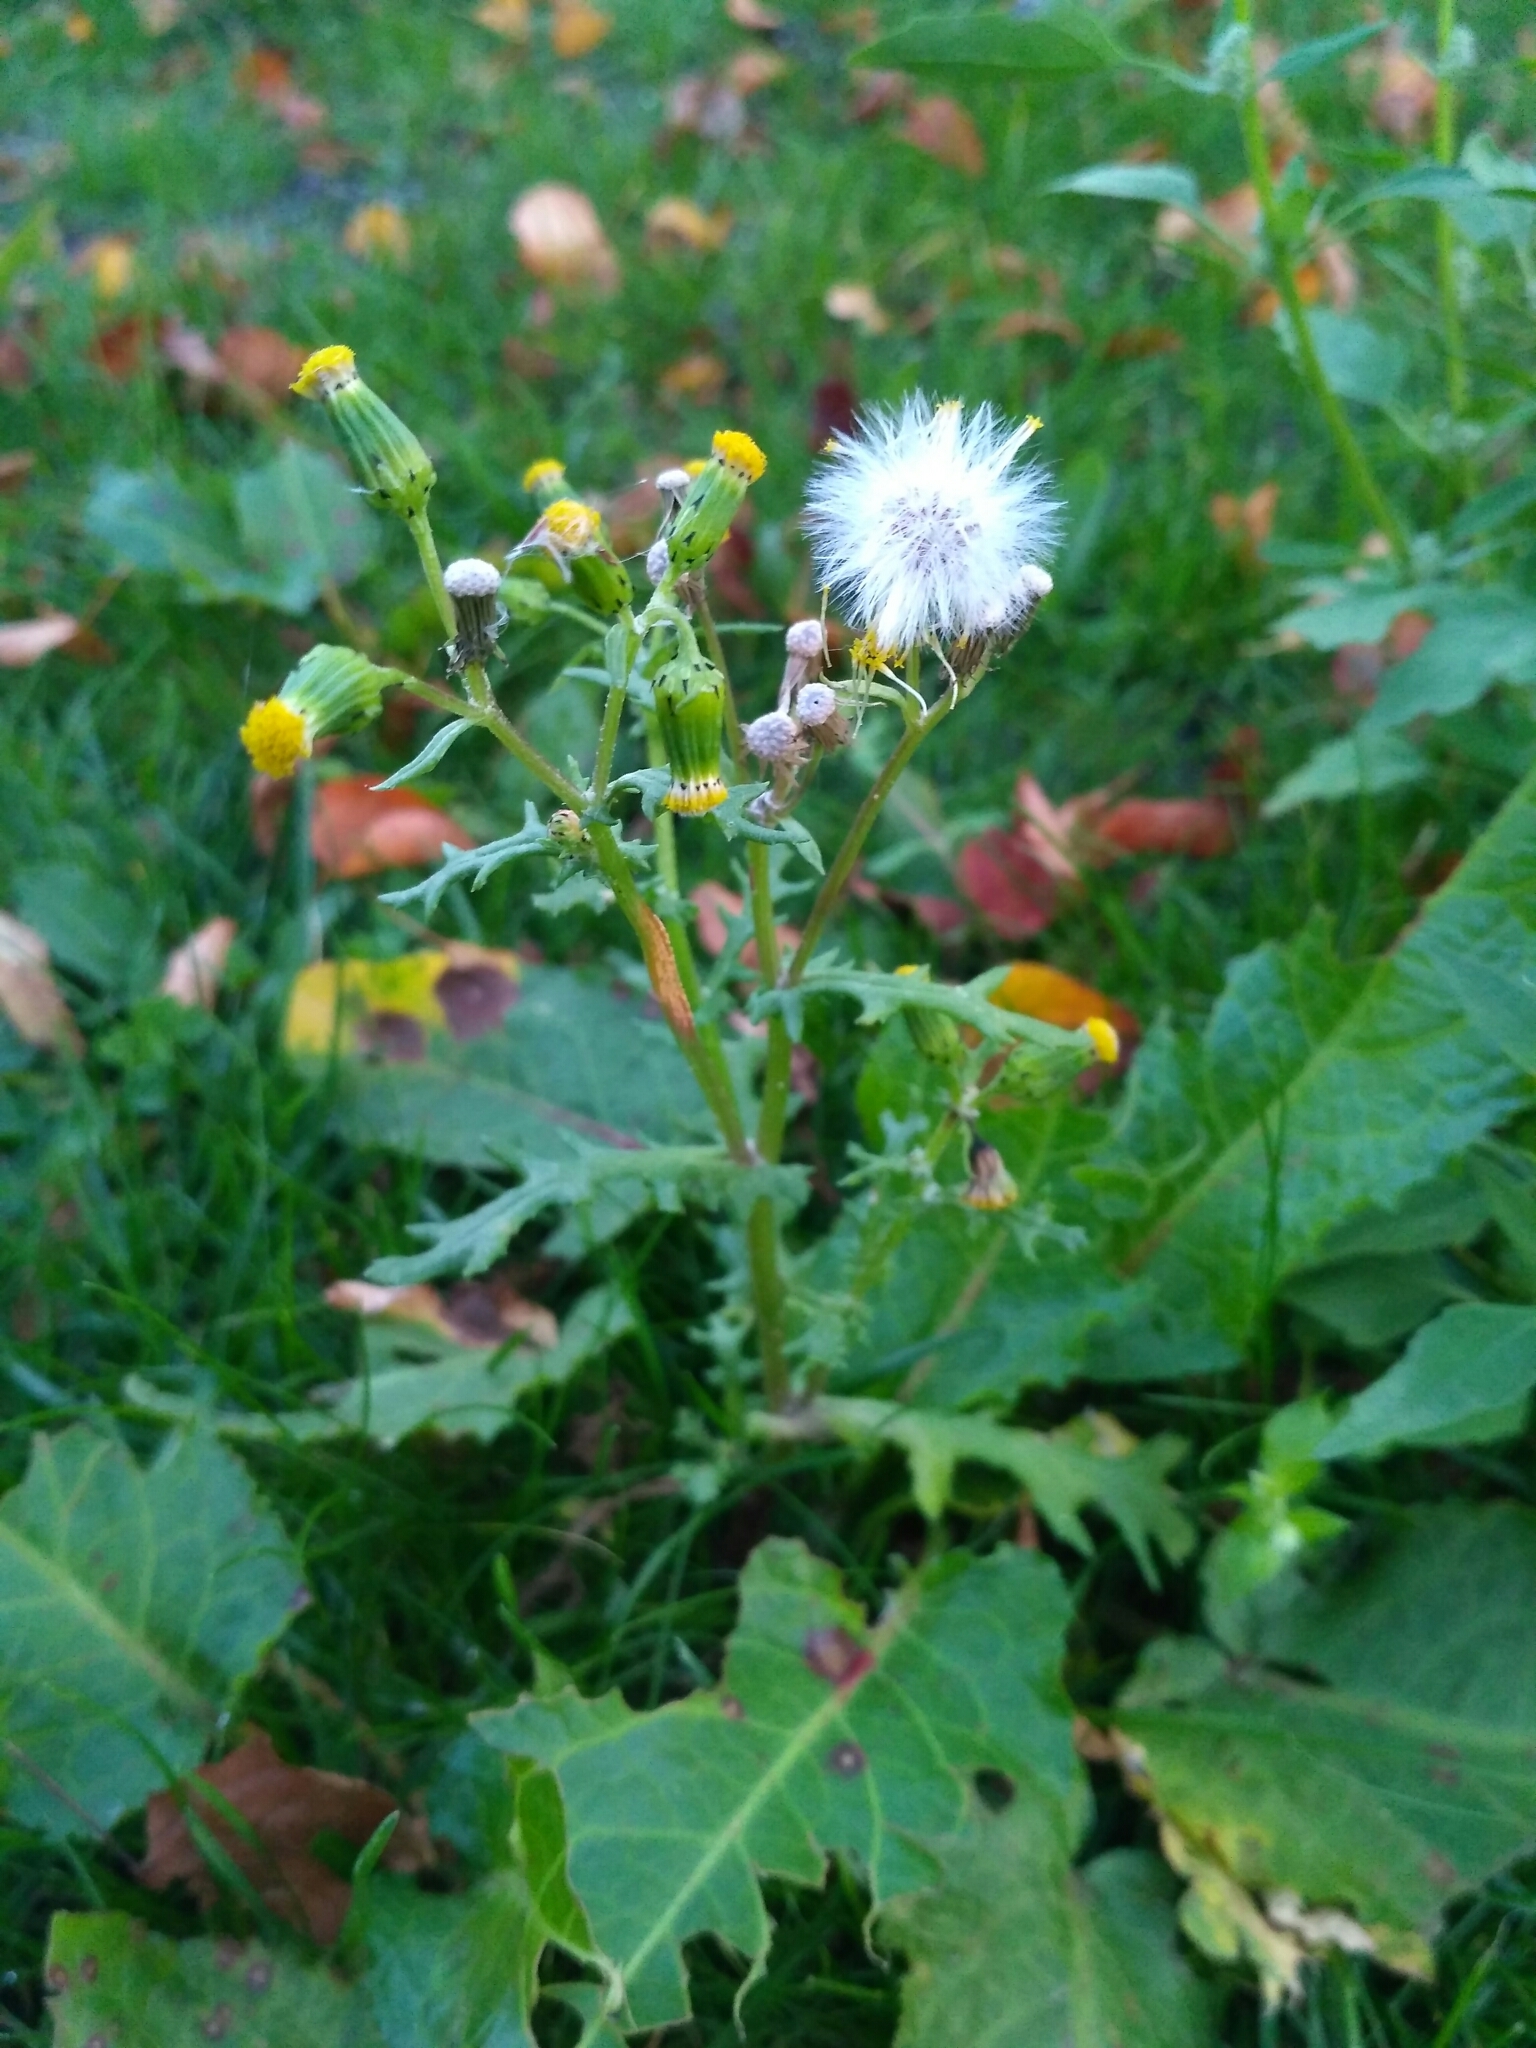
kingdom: Plantae
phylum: Tracheophyta
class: Magnoliopsida
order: Asterales
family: Asteraceae
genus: Senecio
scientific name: Senecio vulgaris
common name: Old-man-in-the-spring
